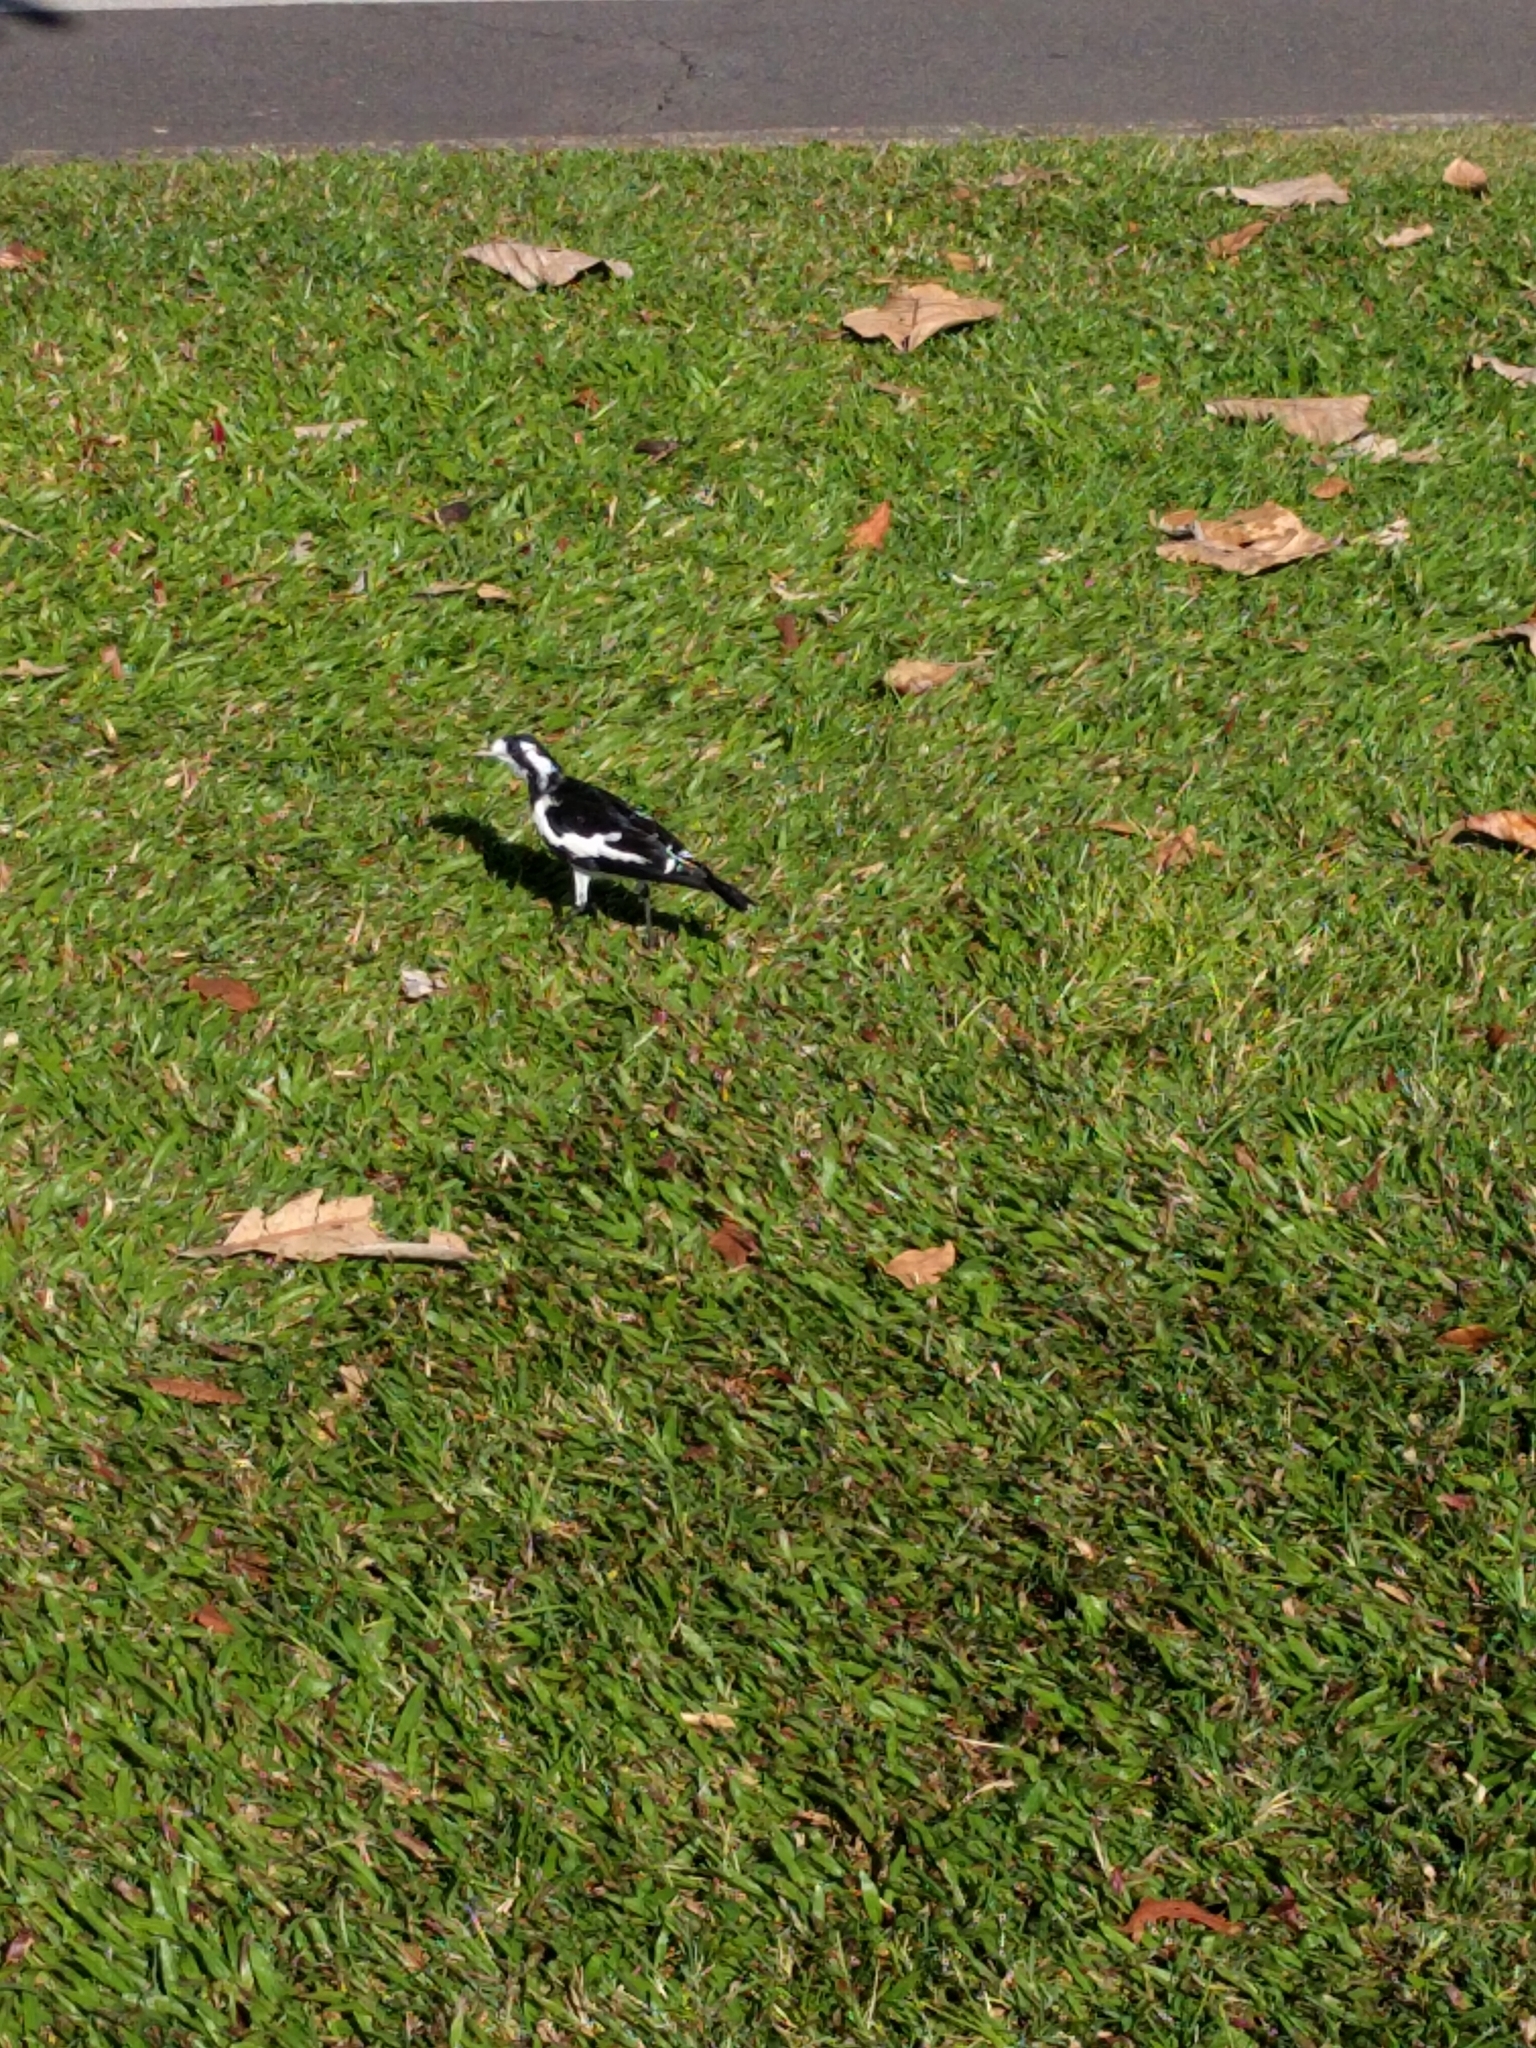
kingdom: Animalia
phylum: Chordata
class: Aves
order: Passeriformes
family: Monarchidae
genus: Grallina
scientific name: Grallina cyanoleuca
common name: Magpie-lark
